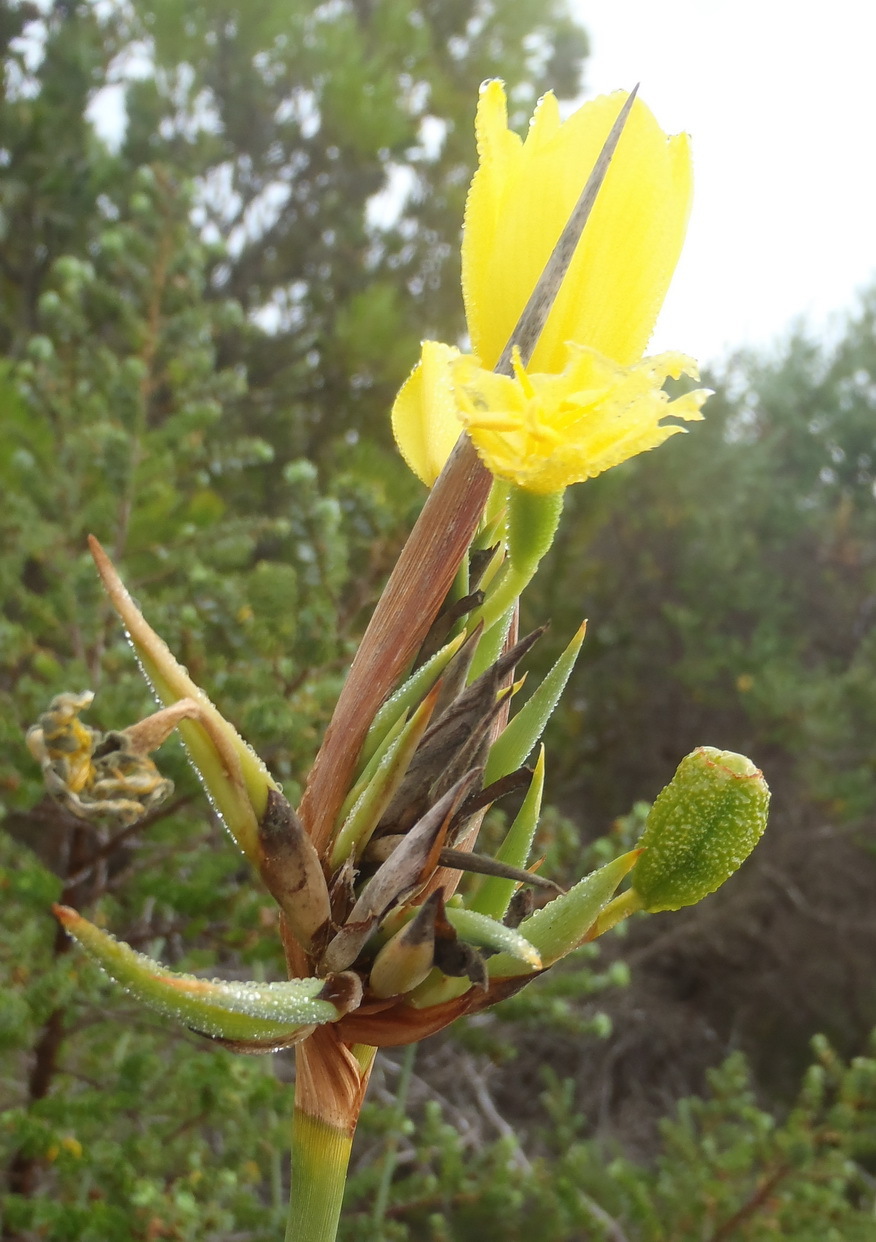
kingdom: Plantae
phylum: Tracheophyta
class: Liliopsida
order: Asparagales
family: Iridaceae
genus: Bobartia
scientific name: Bobartia robusta
